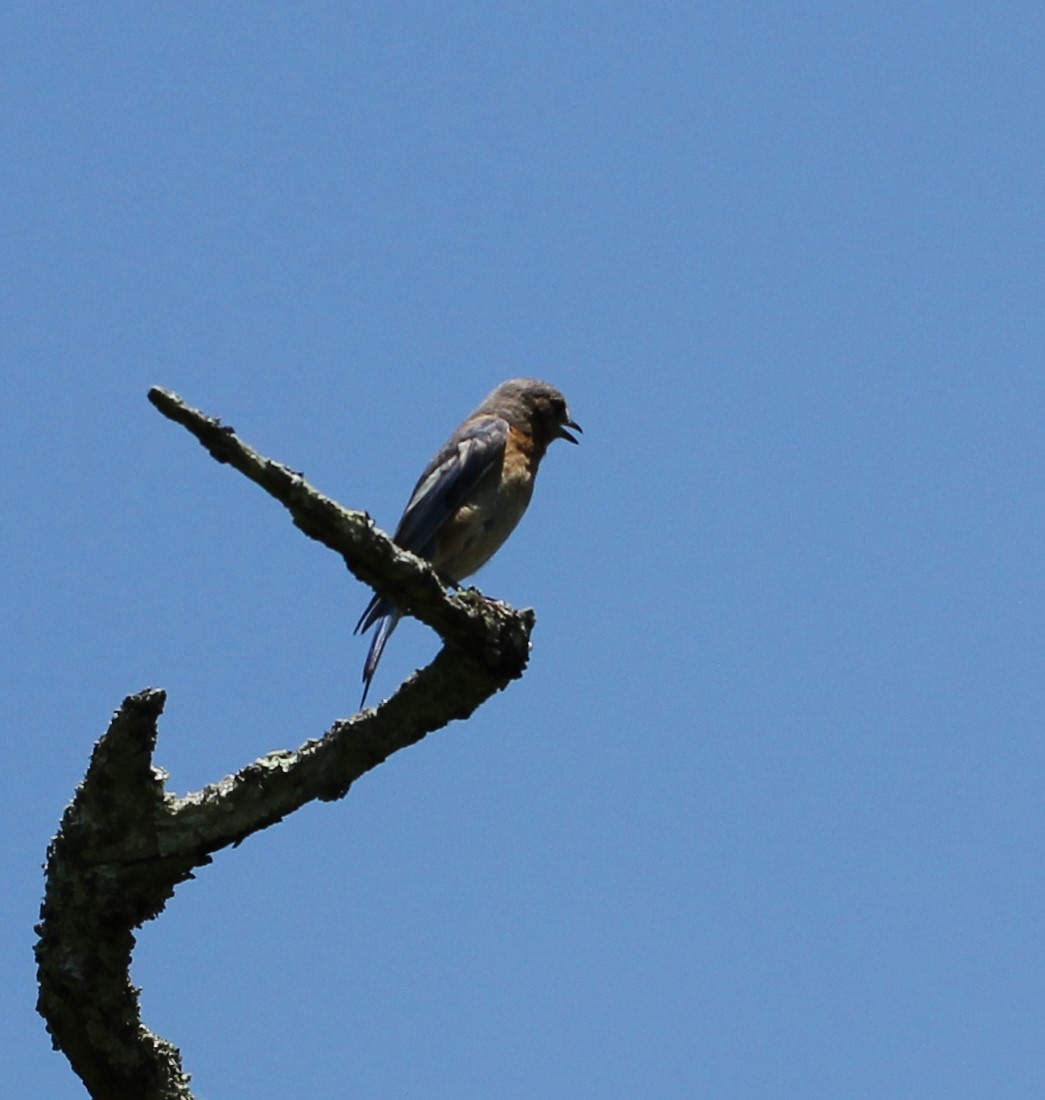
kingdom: Animalia
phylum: Chordata
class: Aves
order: Passeriformes
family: Turdidae
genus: Sialia
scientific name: Sialia sialis
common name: Eastern bluebird
